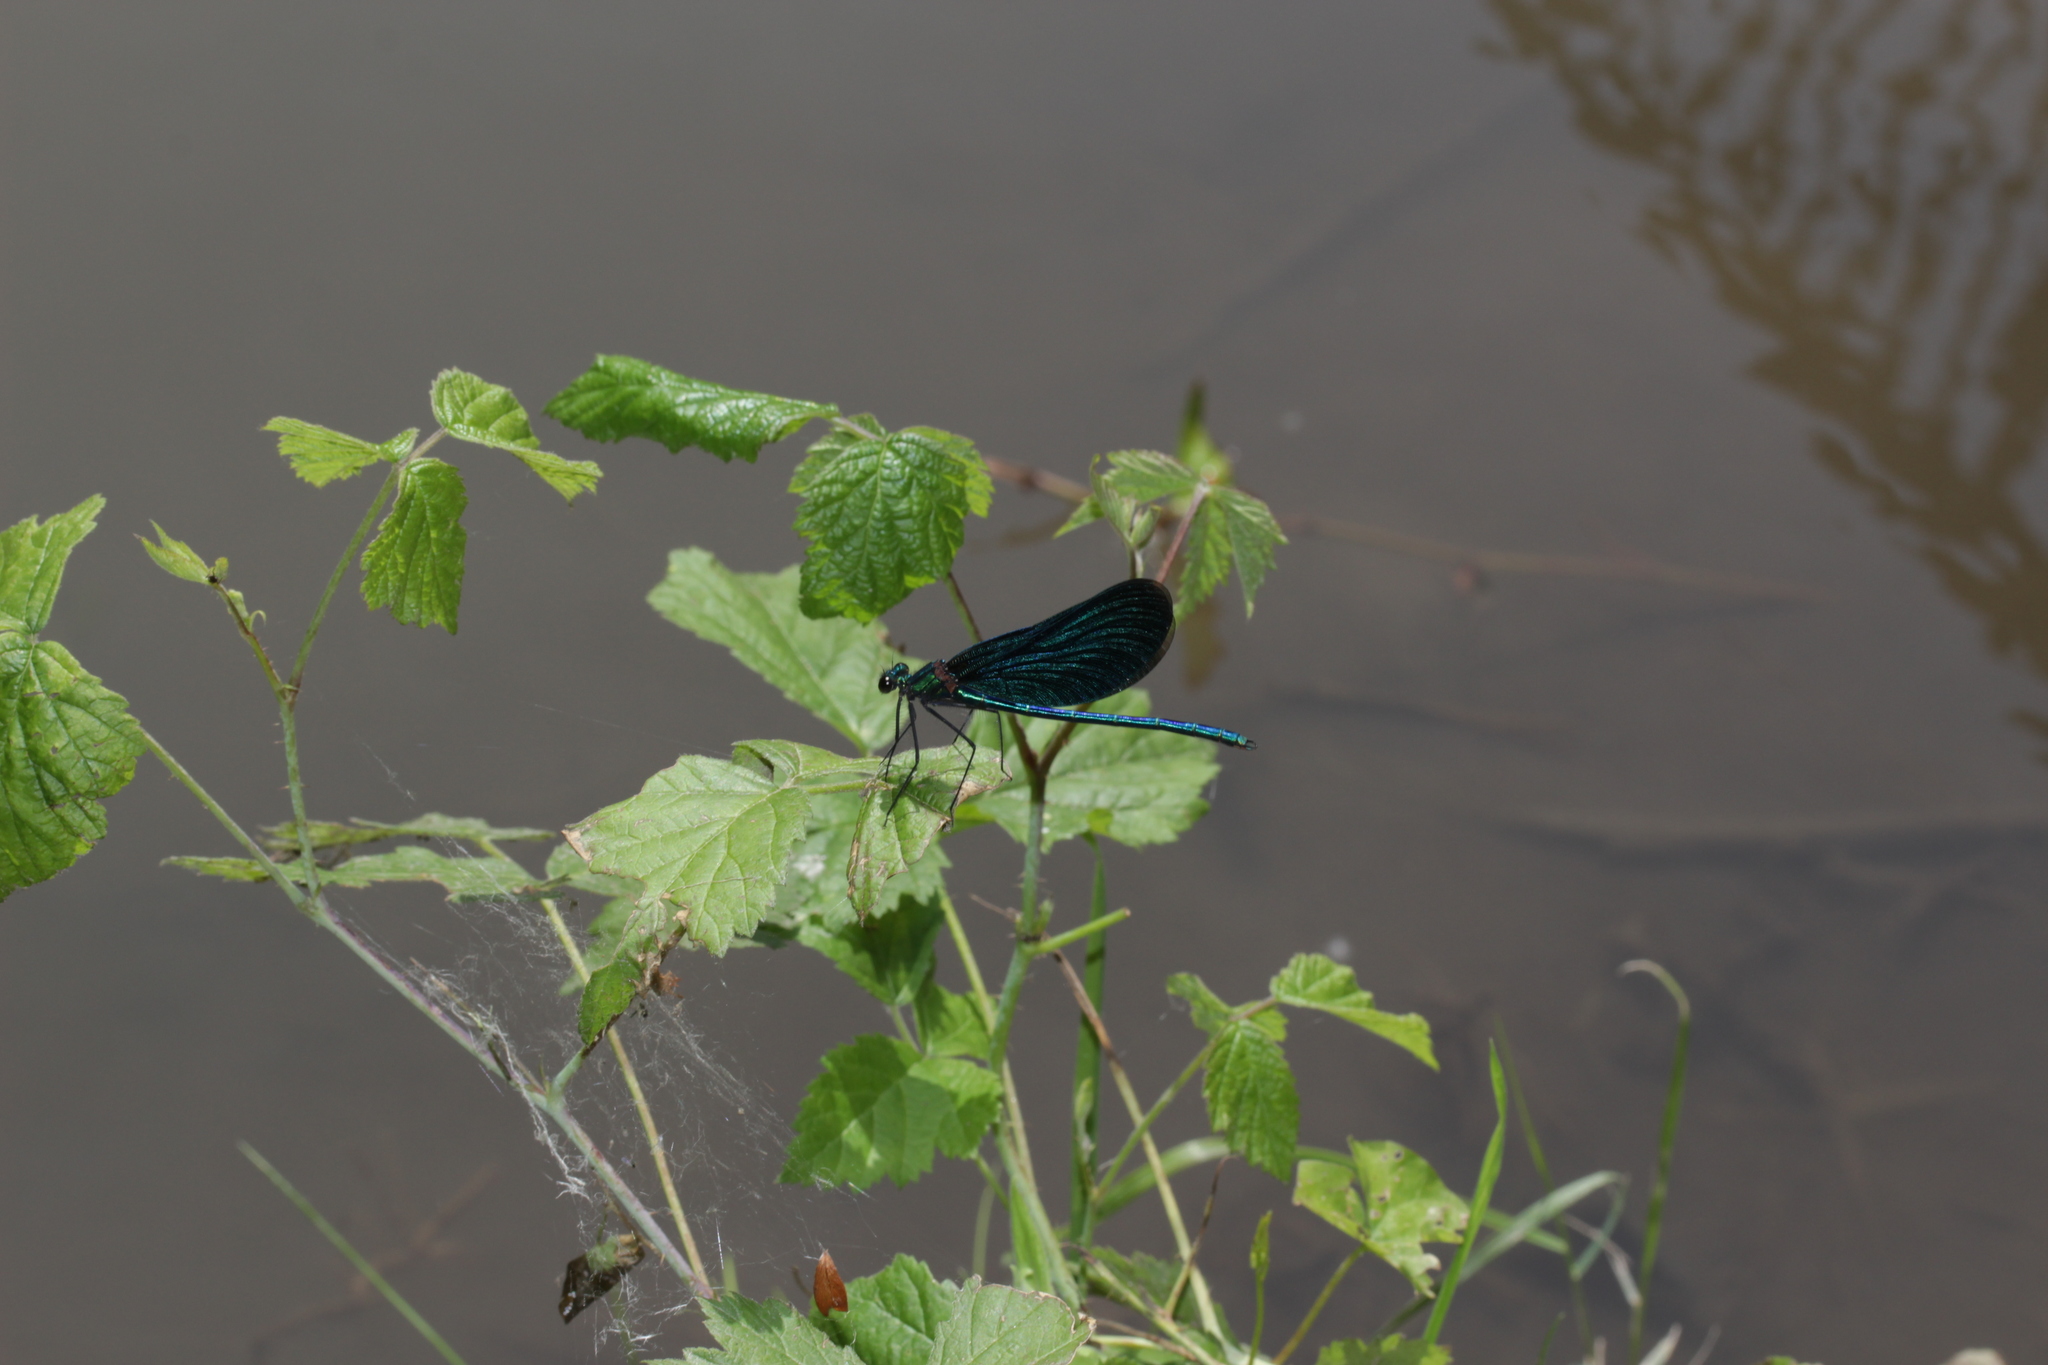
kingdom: Animalia
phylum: Arthropoda
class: Insecta
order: Odonata
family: Calopterygidae
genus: Calopteryx
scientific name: Calopteryx virgo
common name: Beautiful demoiselle
